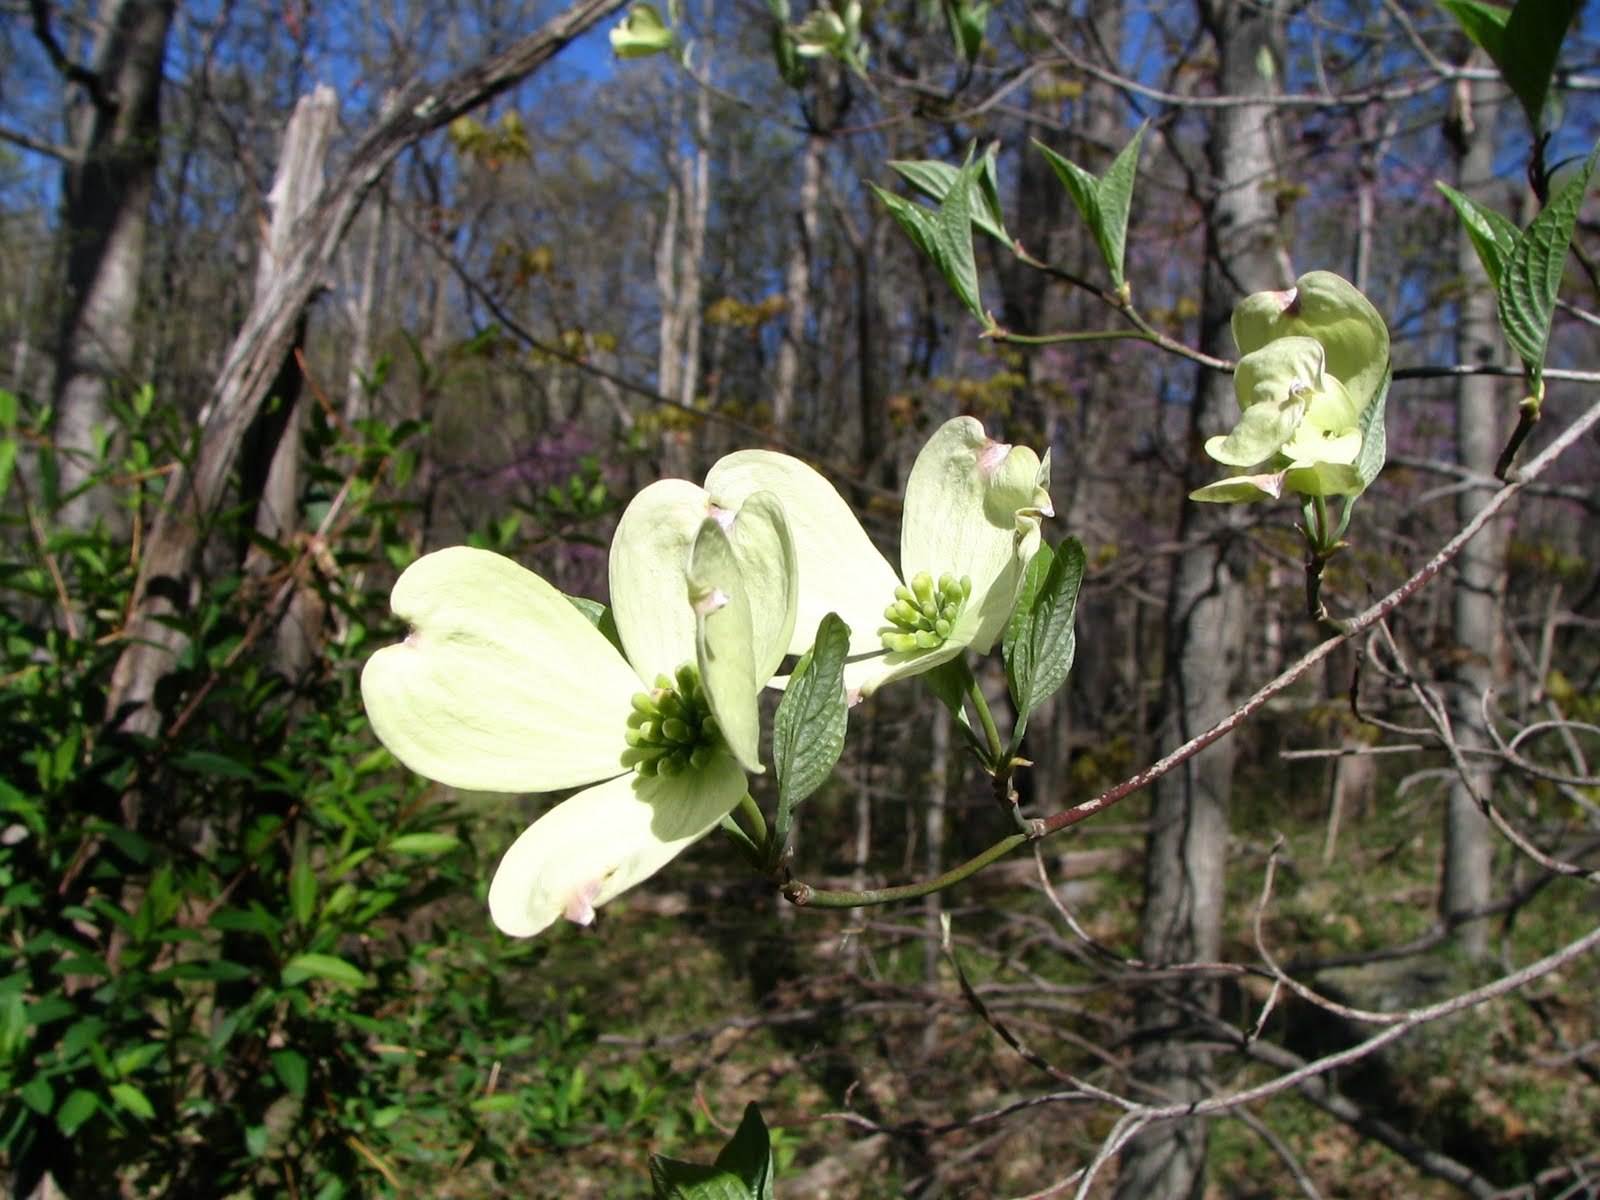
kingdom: Plantae
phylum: Tracheophyta
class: Magnoliopsida
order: Cornales
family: Cornaceae
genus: Cornus
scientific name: Cornus florida
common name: Flowering dogwood
